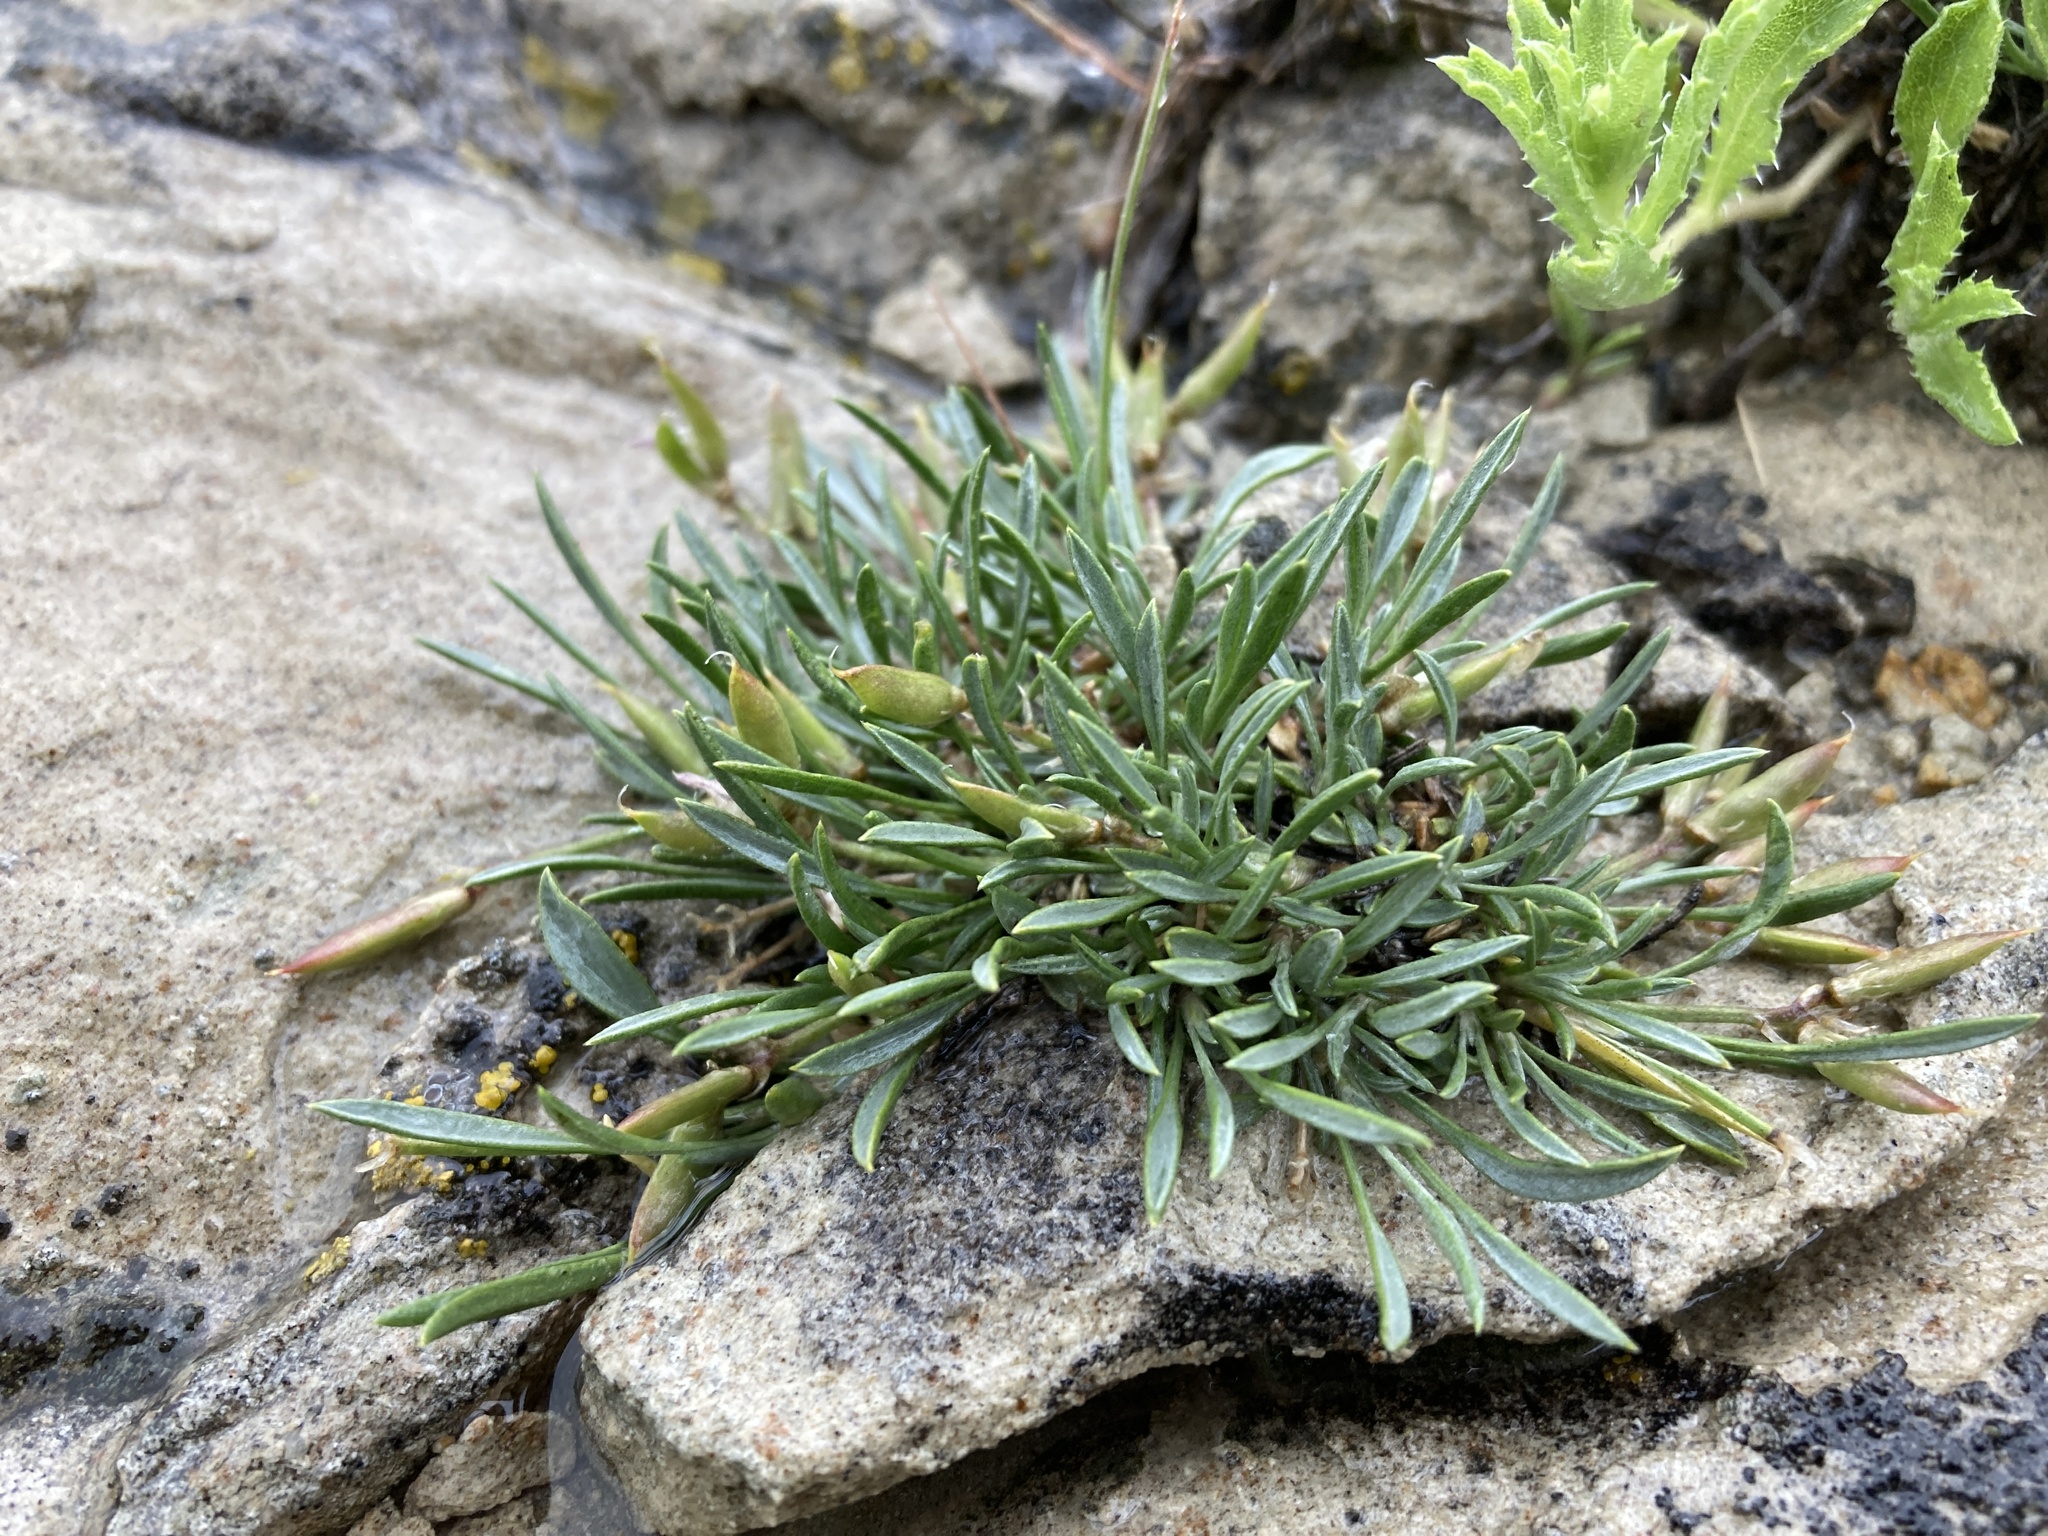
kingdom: Plantae
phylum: Tracheophyta
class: Magnoliopsida
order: Fabales
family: Fabaceae
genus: Astragalus
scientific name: Astragalus spatulatus
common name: Draba milk-vetch
